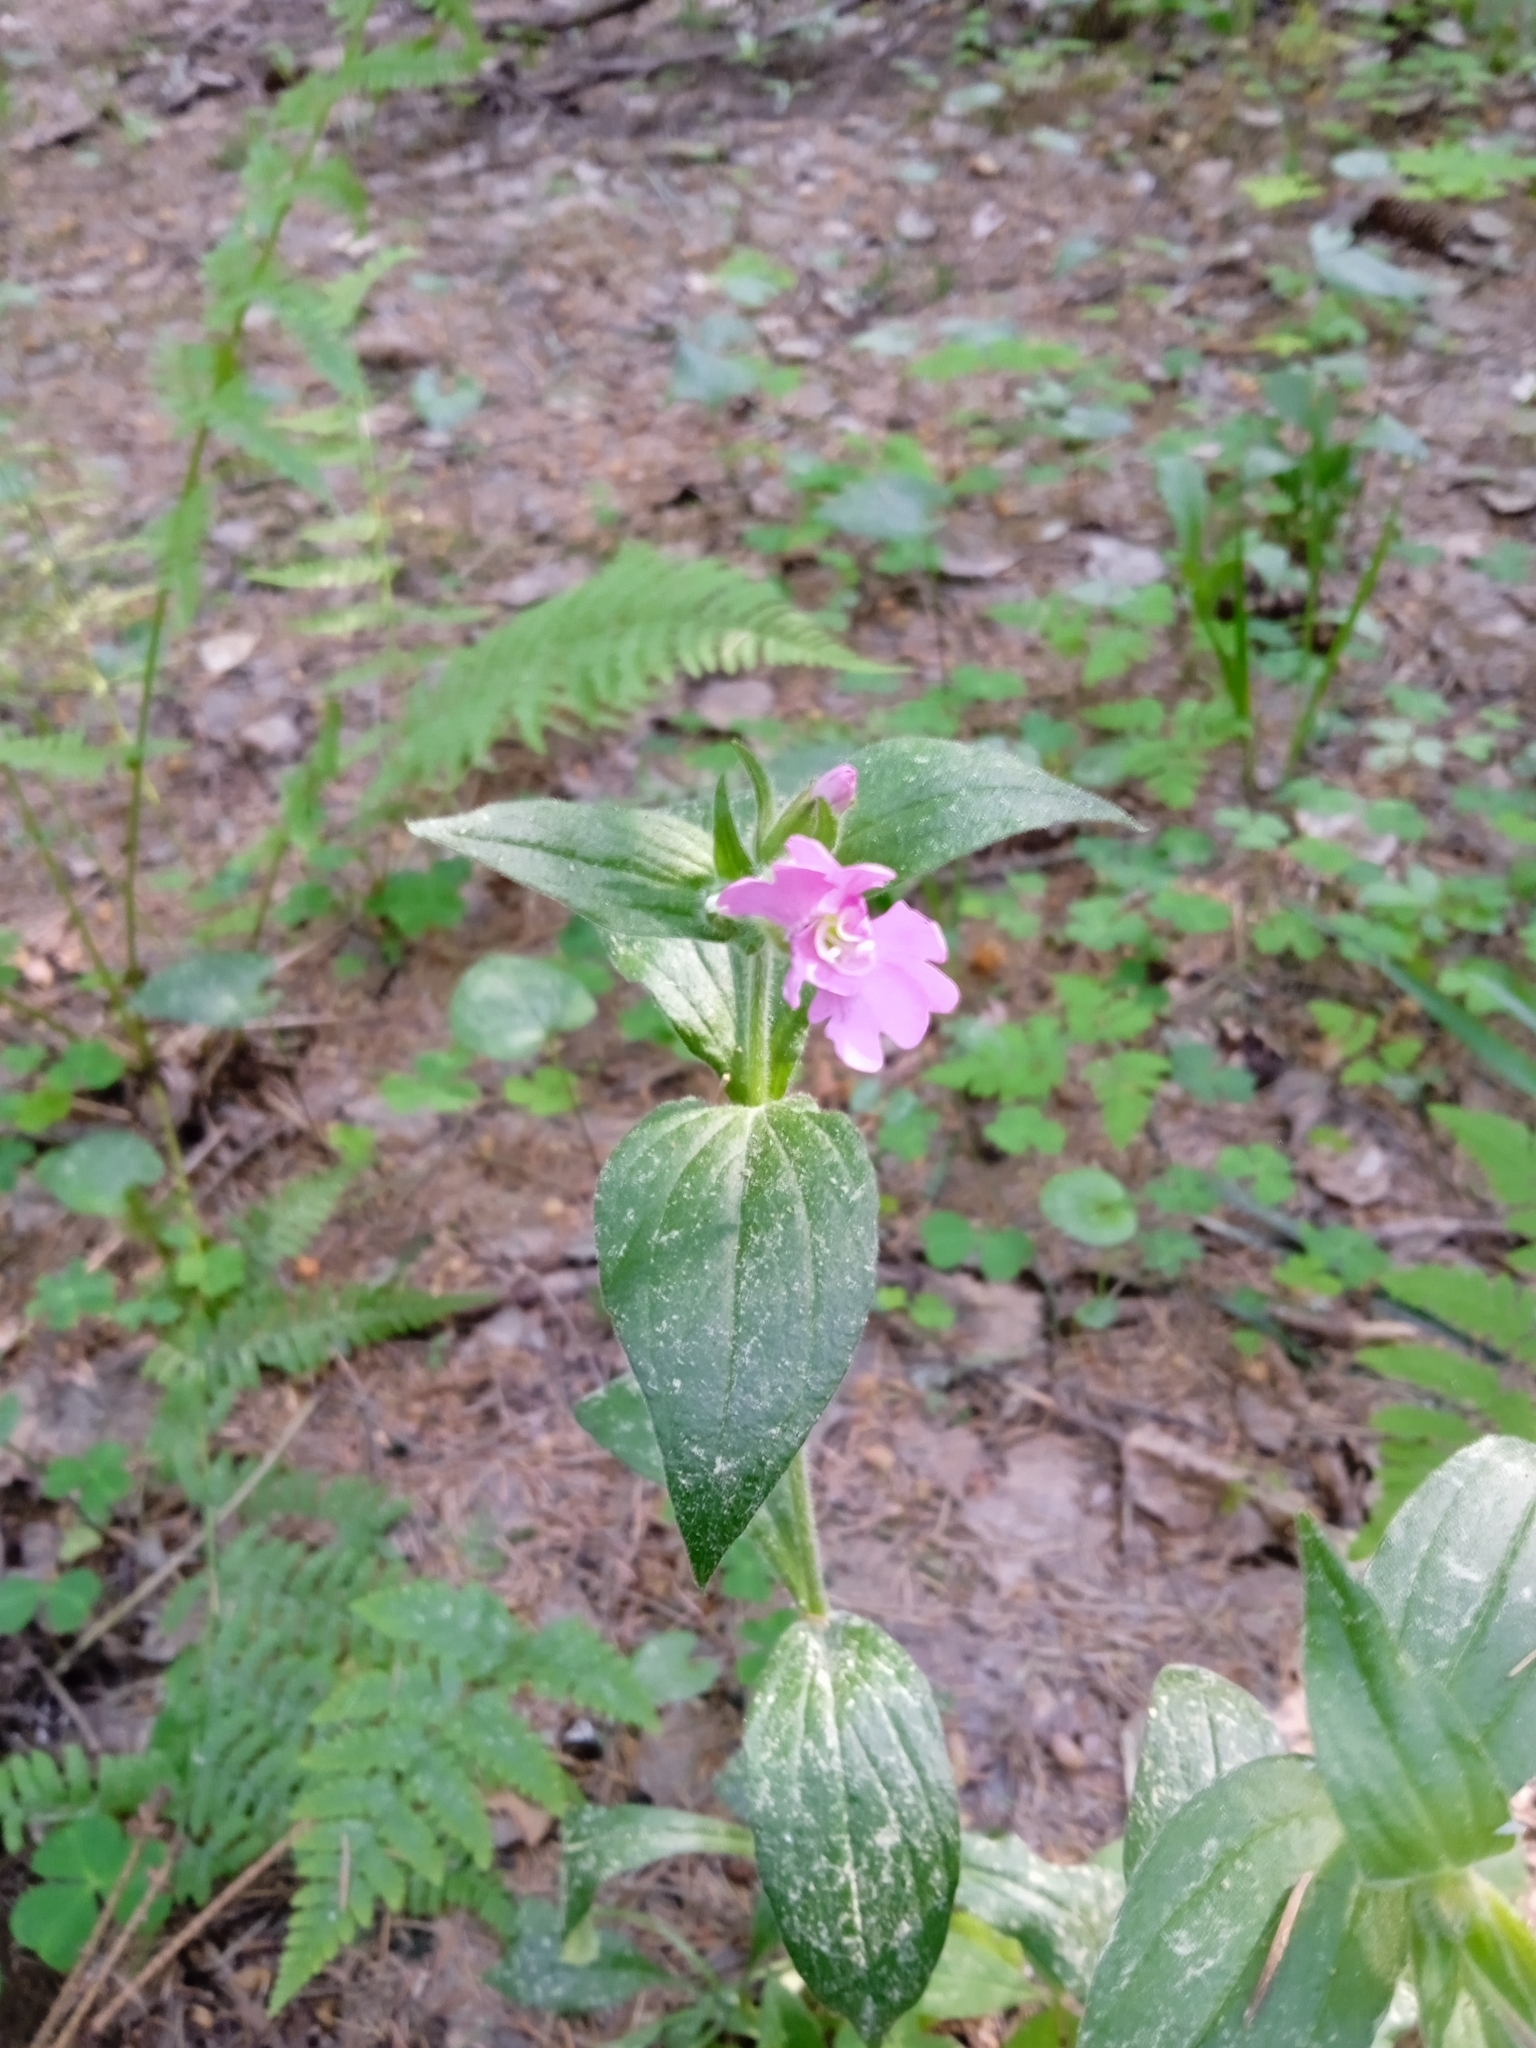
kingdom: Plantae
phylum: Tracheophyta
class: Magnoliopsida
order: Caryophyllales
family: Caryophyllaceae
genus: Silene
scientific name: Silene dioica
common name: Red campion
